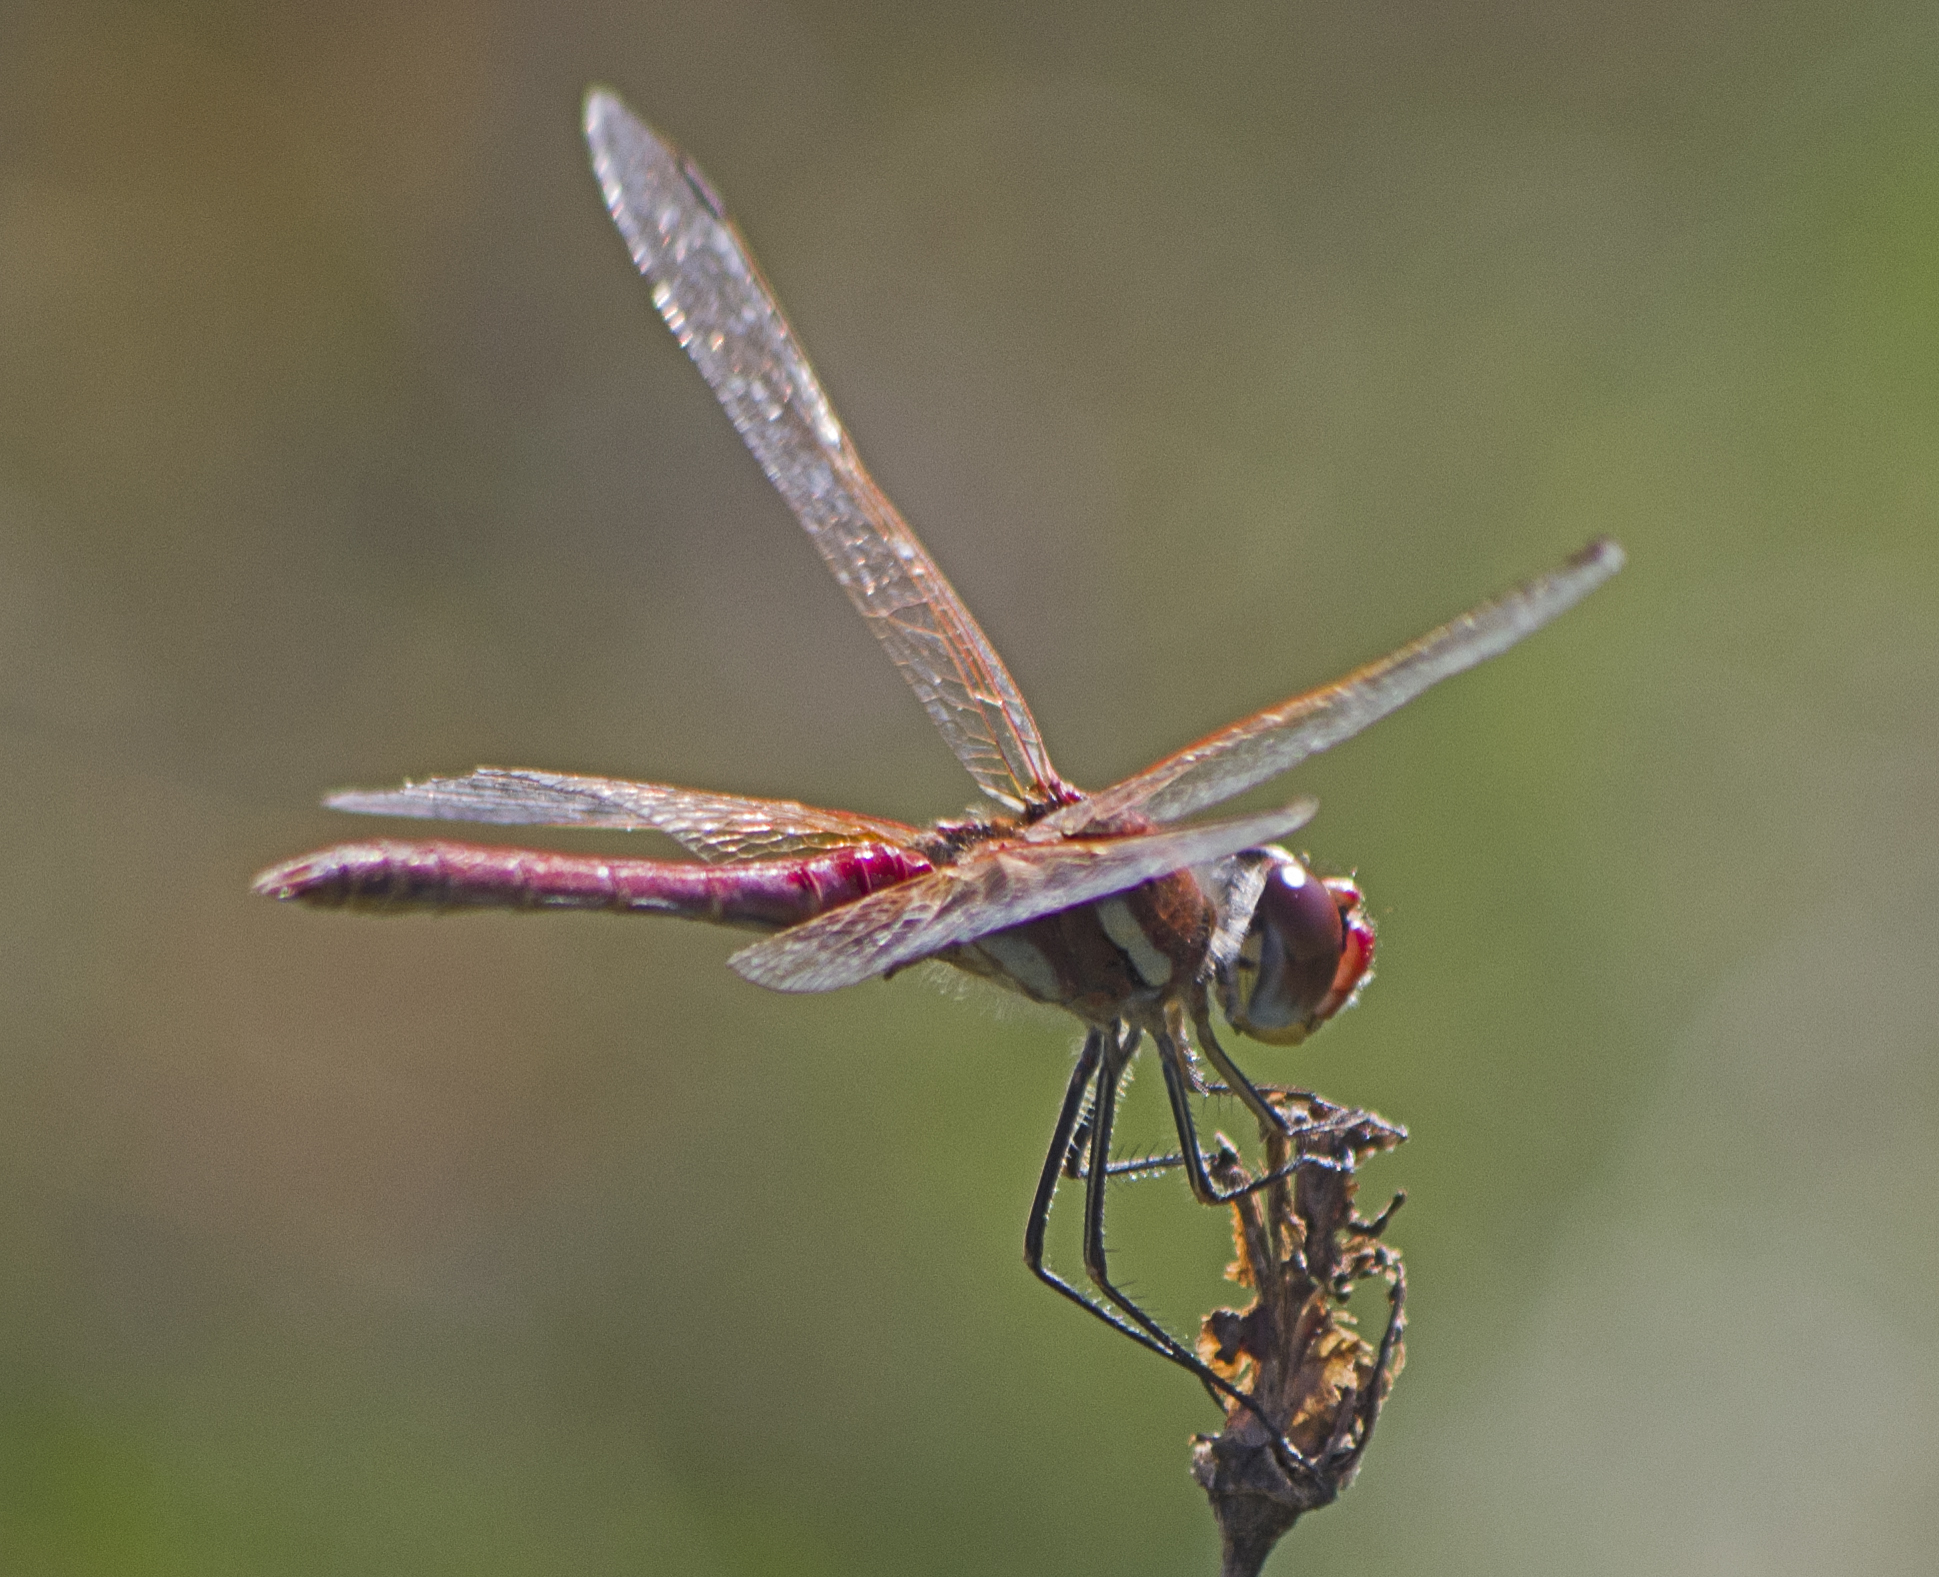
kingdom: Animalia
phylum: Arthropoda
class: Insecta
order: Odonata
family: Libellulidae
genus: Sympetrum
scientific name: Sympetrum fonscolombii
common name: Red-veined darter
